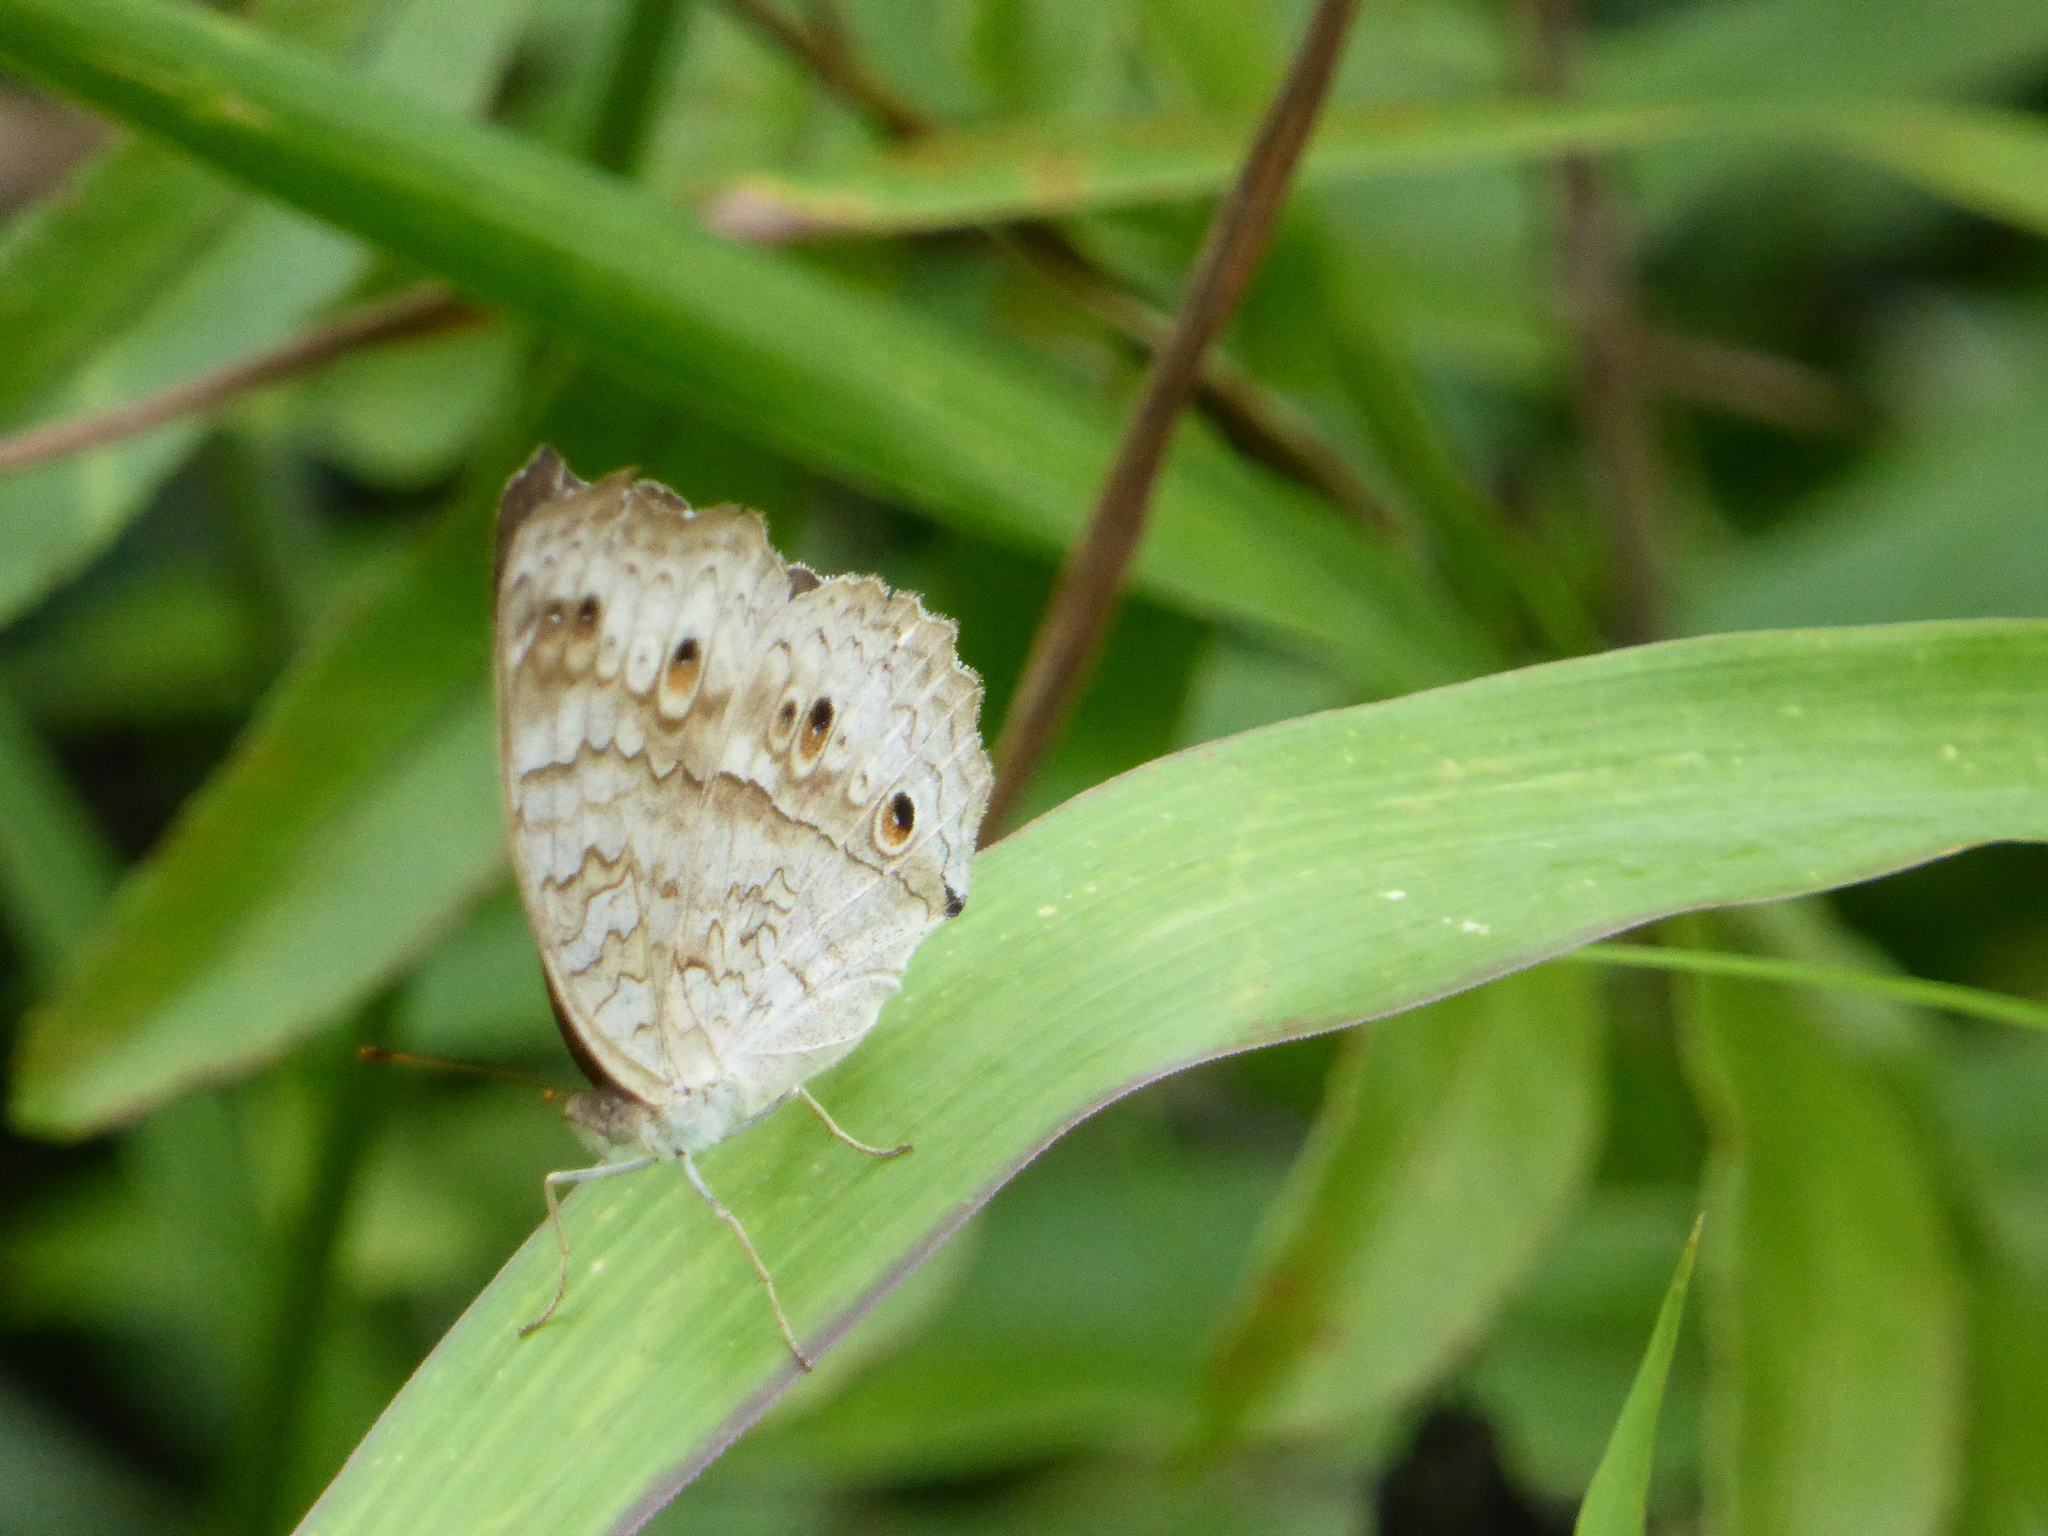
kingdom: Animalia
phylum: Arthropoda
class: Insecta
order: Lepidoptera
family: Nymphalidae
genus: Junonia
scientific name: Junonia atlites
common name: Grey pansy
